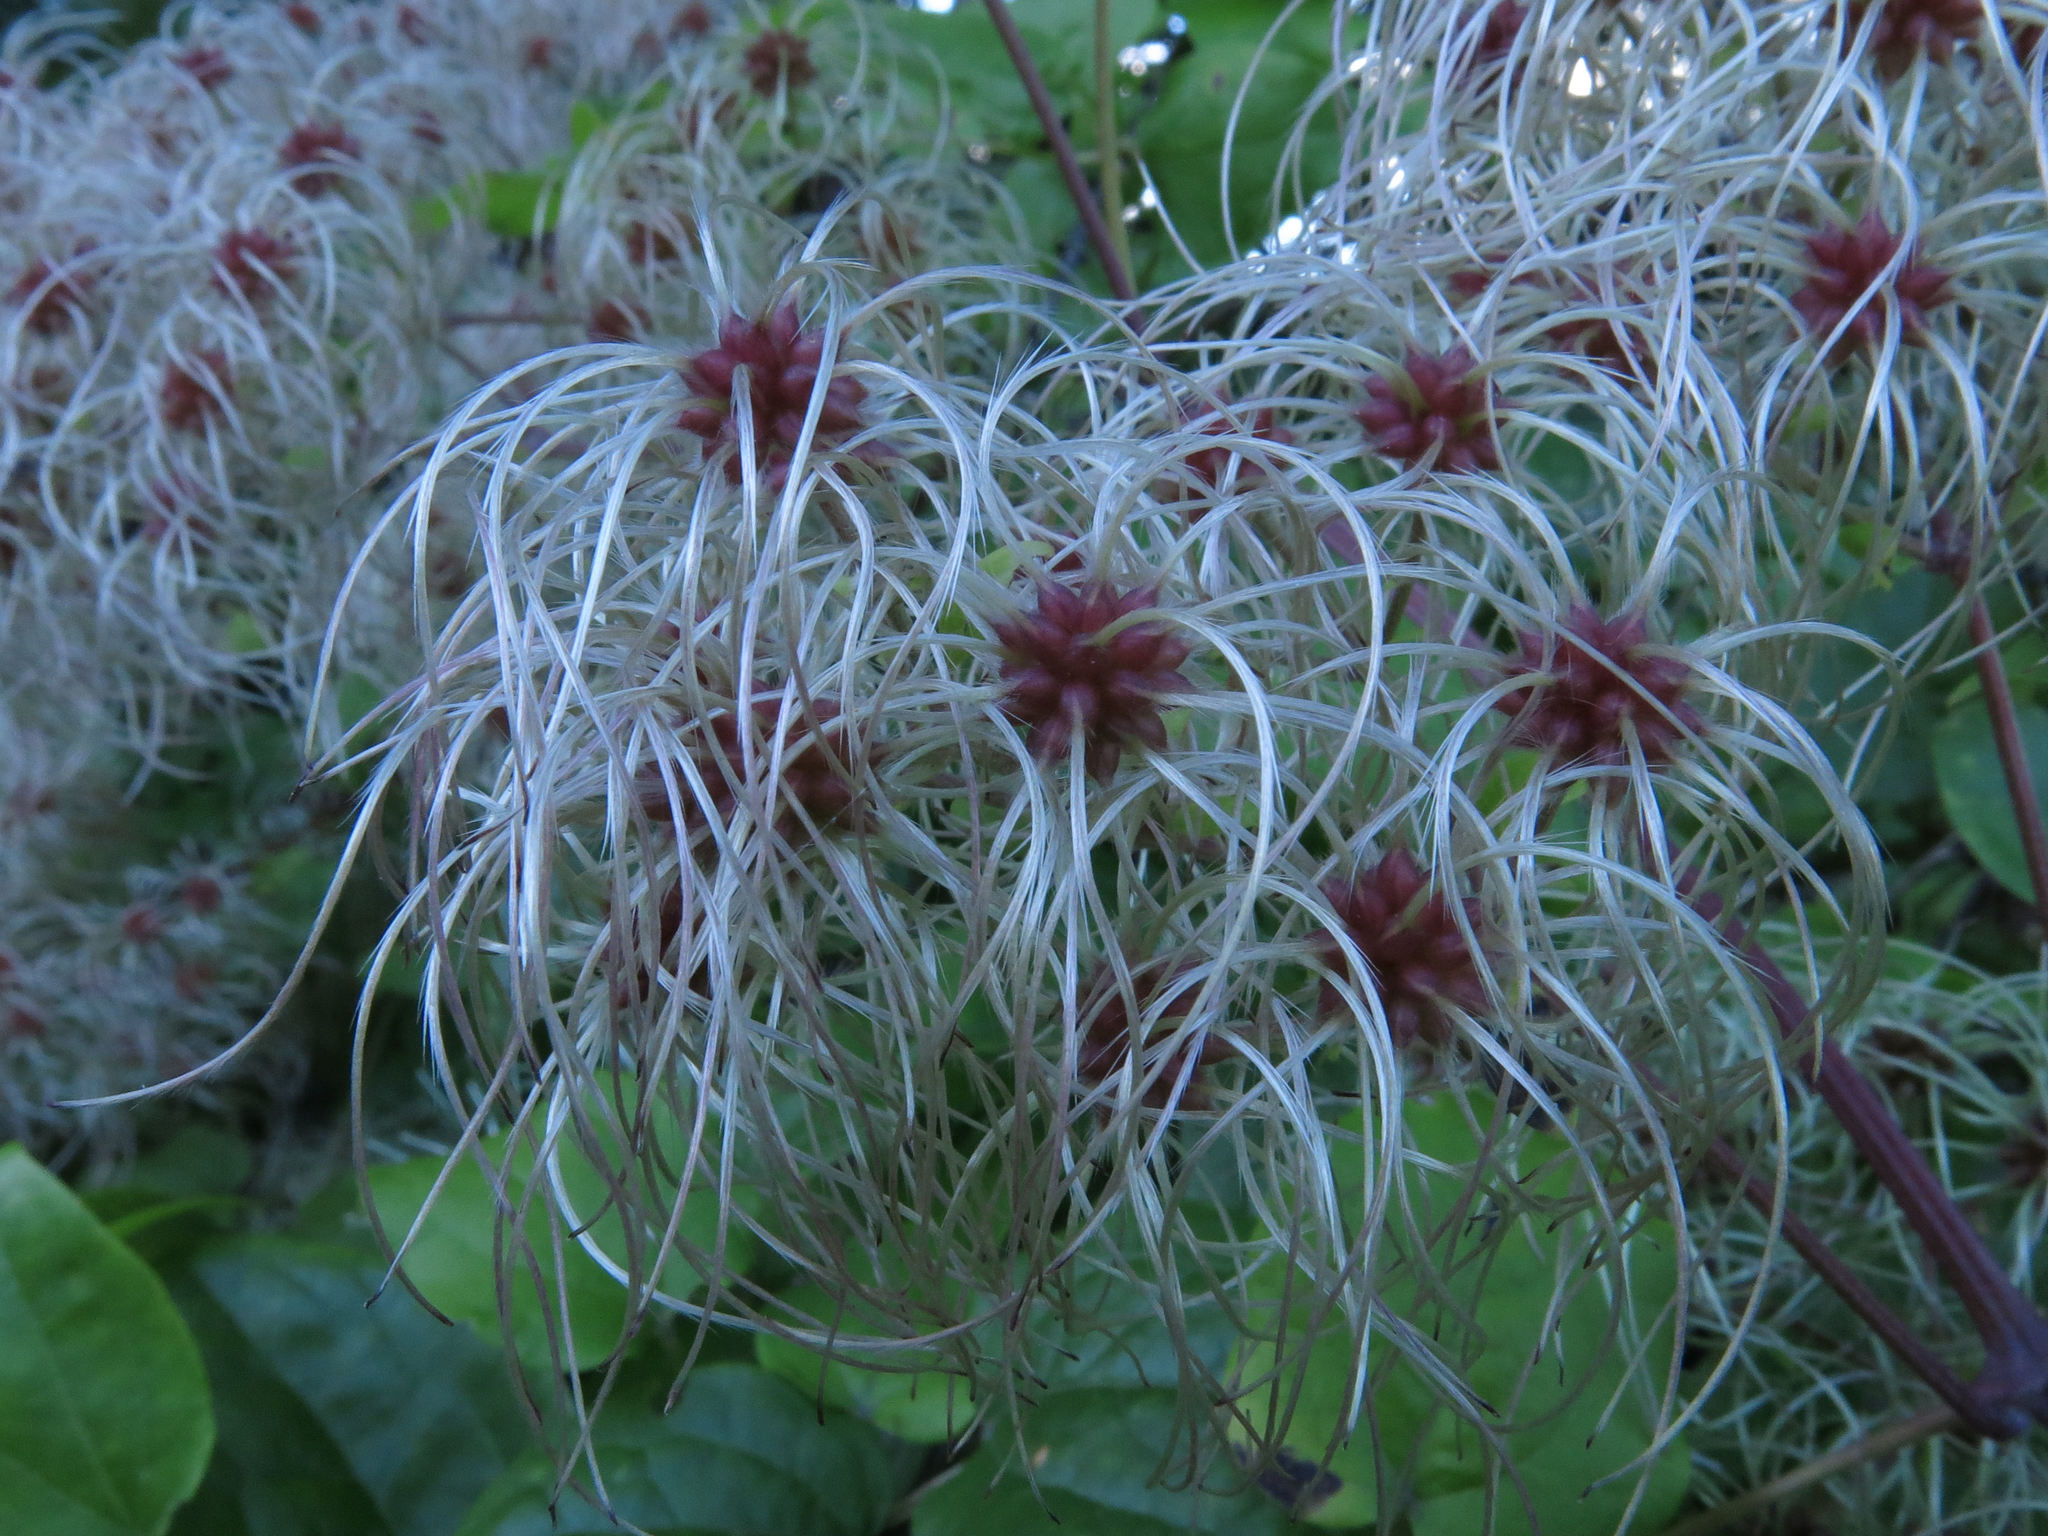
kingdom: Plantae
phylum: Tracheophyta
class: Magnoliopsida
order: Ranunculales
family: Ranunculaceae
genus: Clematis
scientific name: Clematis vitalba
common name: Evergreen clematis
